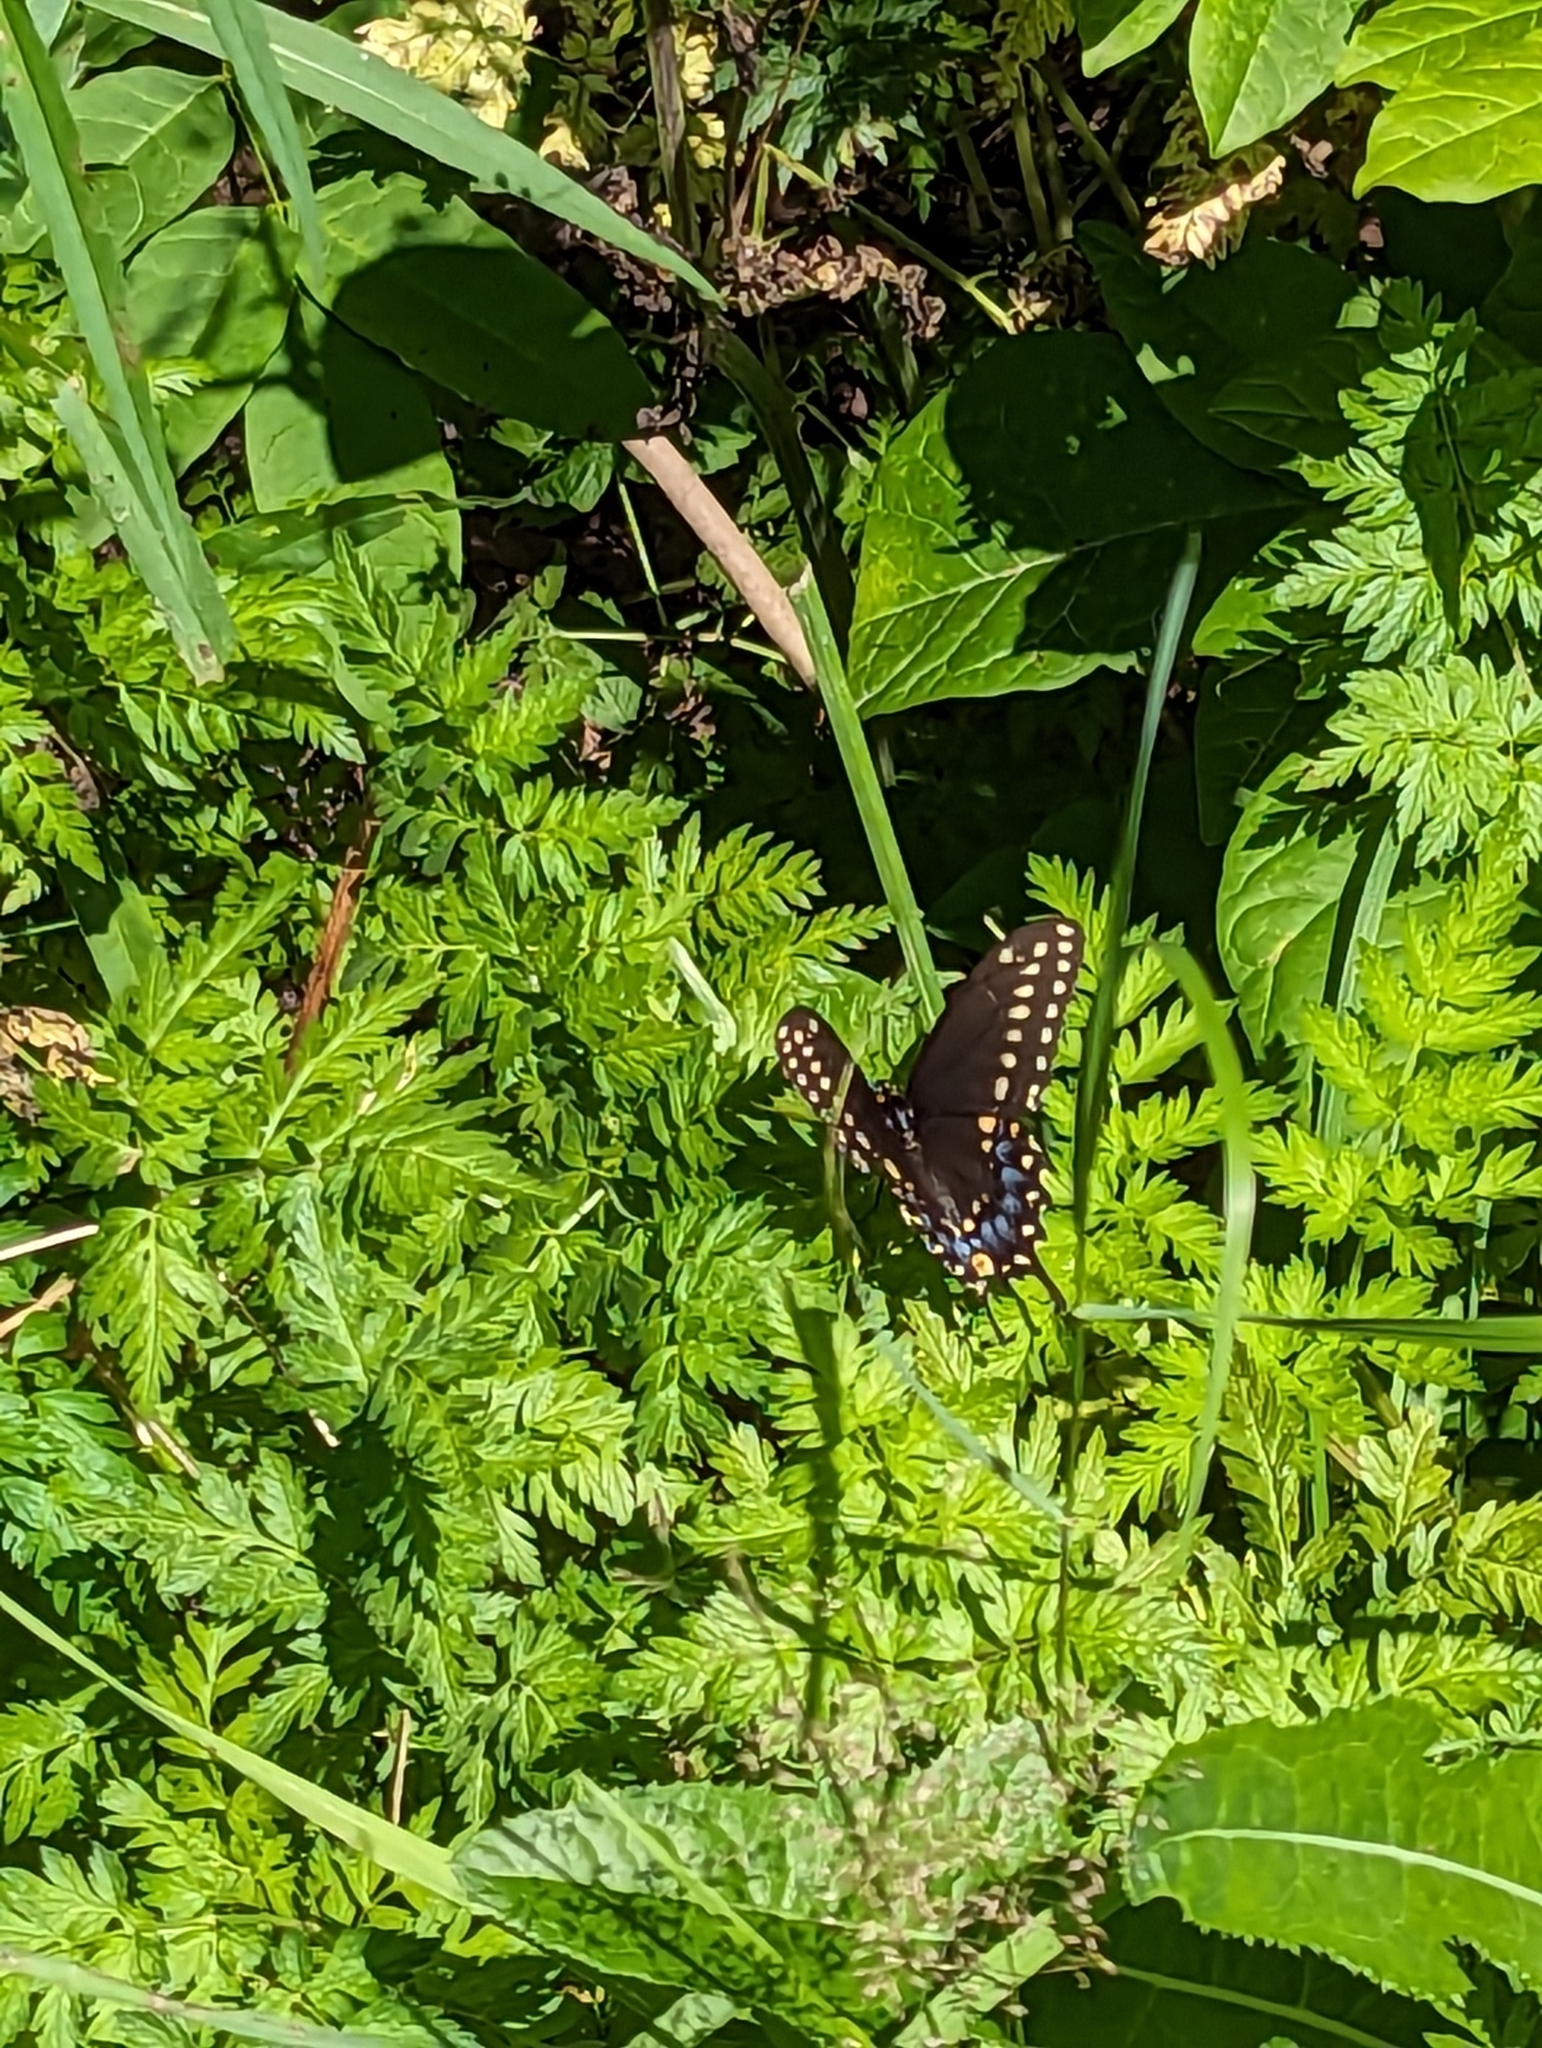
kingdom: Animalia
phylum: Arthropoda
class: Insecta
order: Lepidoptera
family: Papilionidae
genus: Papilio
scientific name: Papilio polyxenes
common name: Black swallowtail
